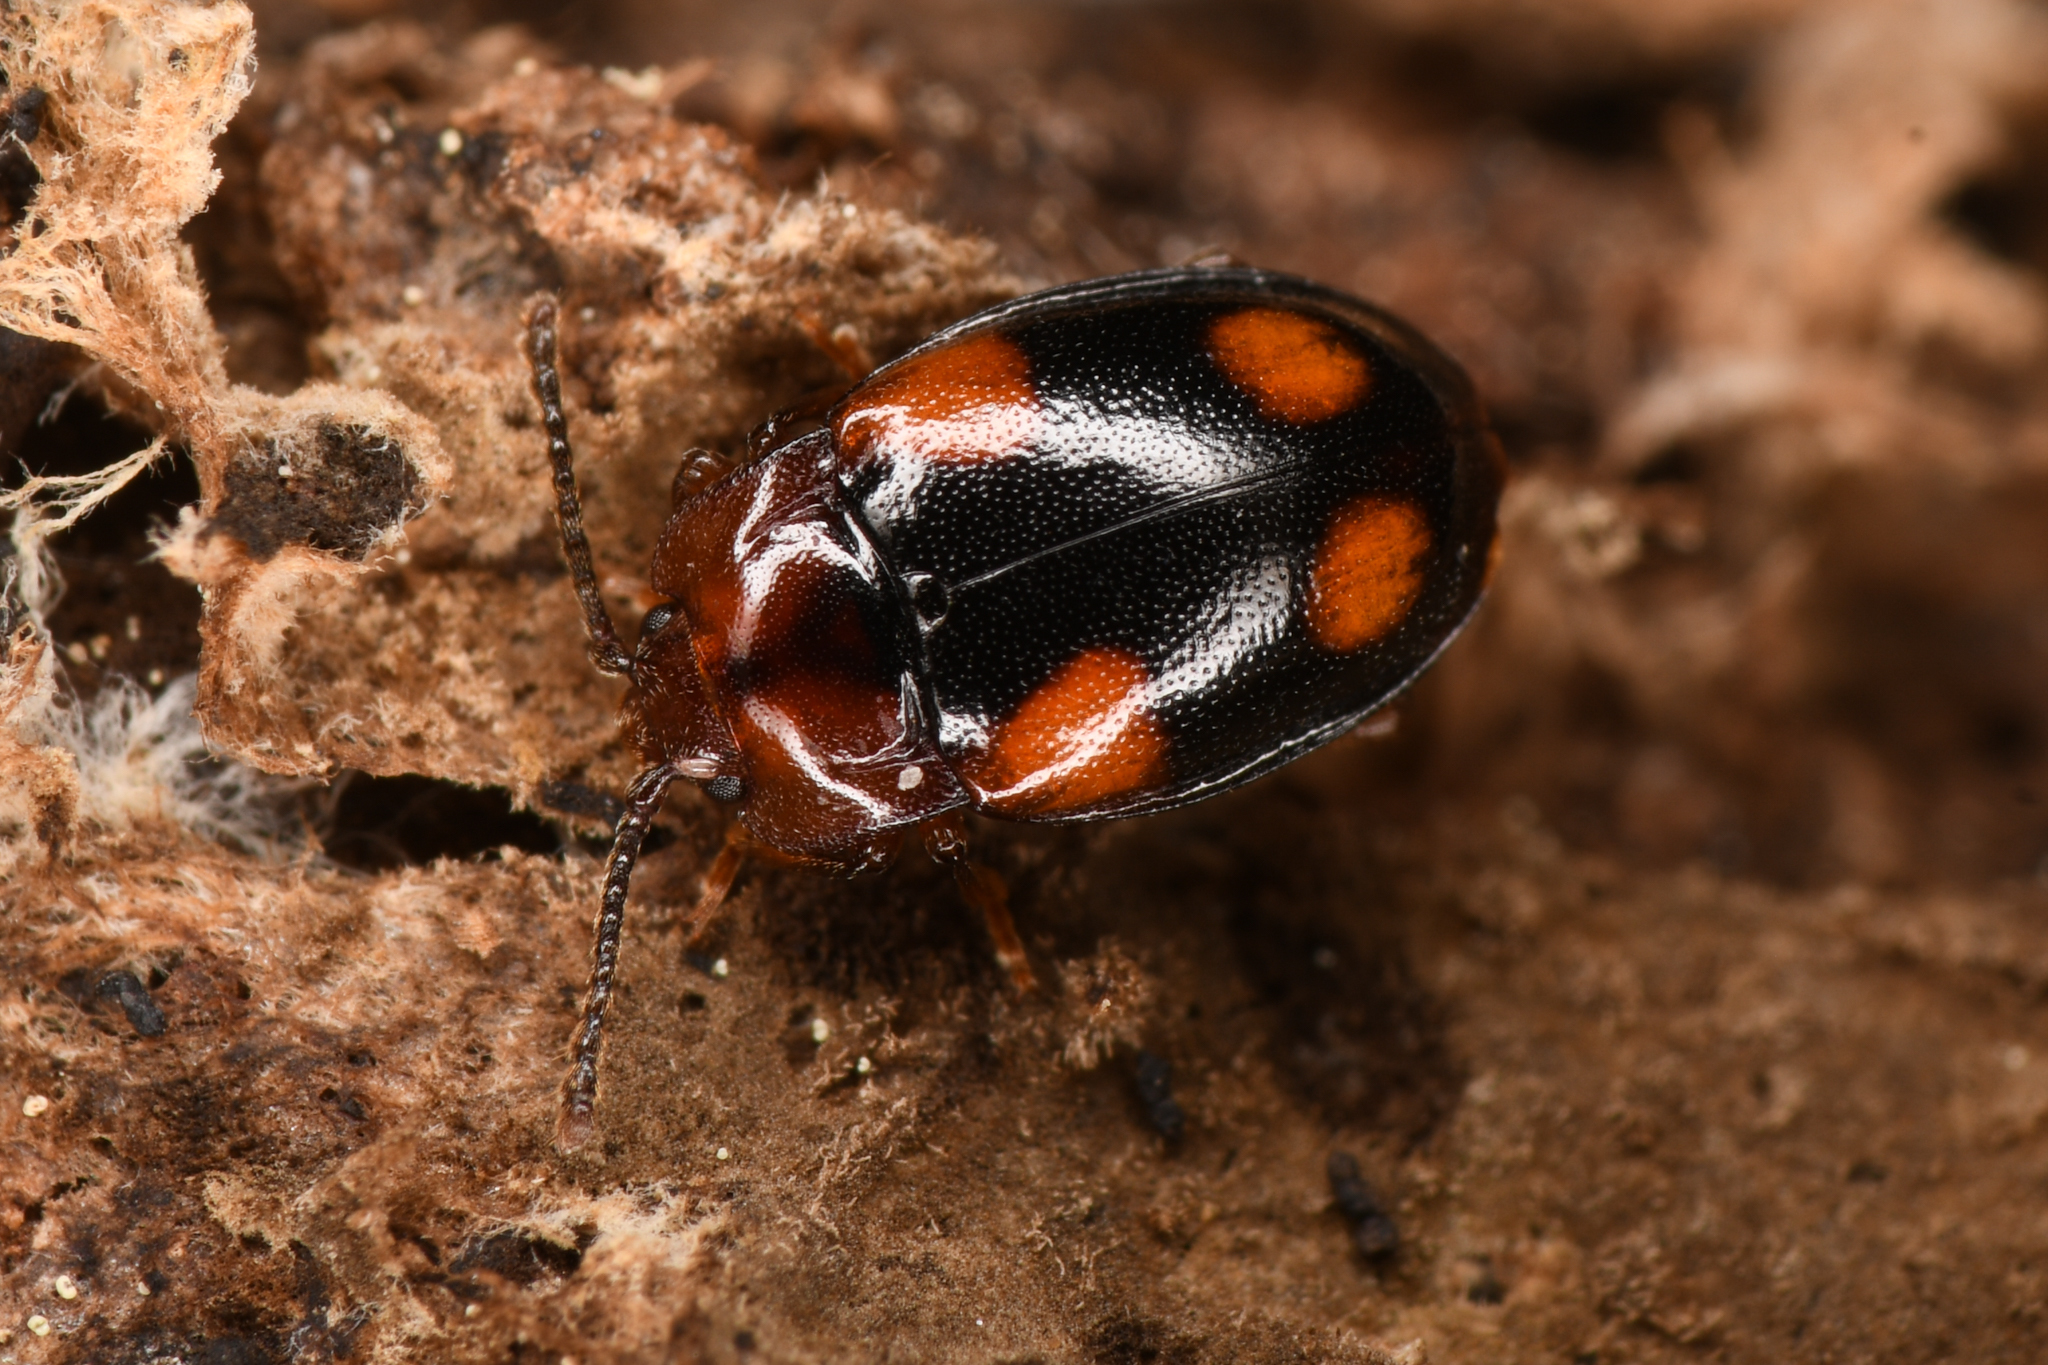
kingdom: Animalia
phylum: Arthropoda
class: Insecta
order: Coleoptera
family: Endomychidae
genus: Mycetina
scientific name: Mycetina idahoensis
